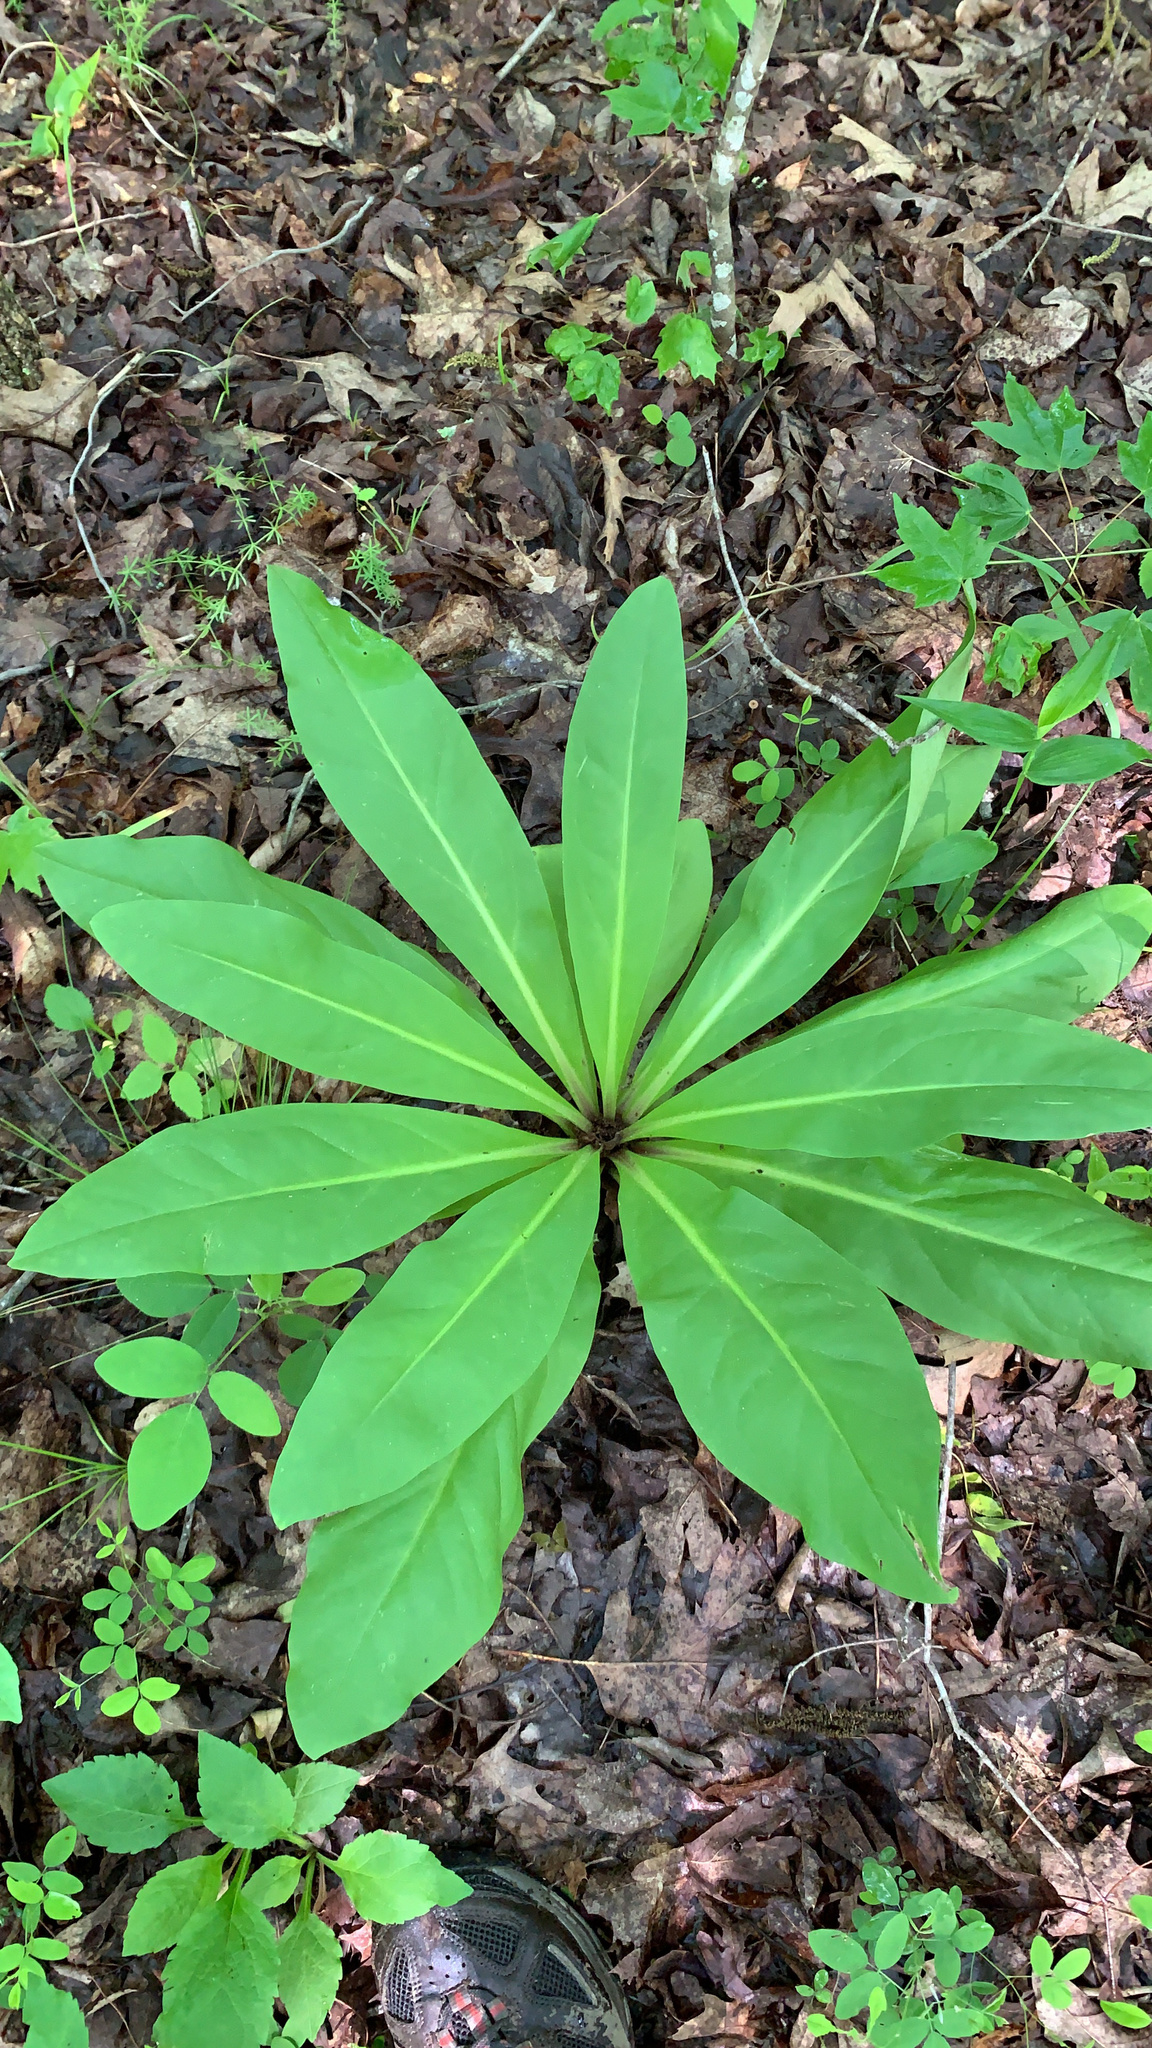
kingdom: Plantae
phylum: Tracheophyta
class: Magnoliopsida
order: Gentianales
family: Gentianaceae
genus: Frasera
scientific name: Frasera caroliniensis
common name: American columbo
